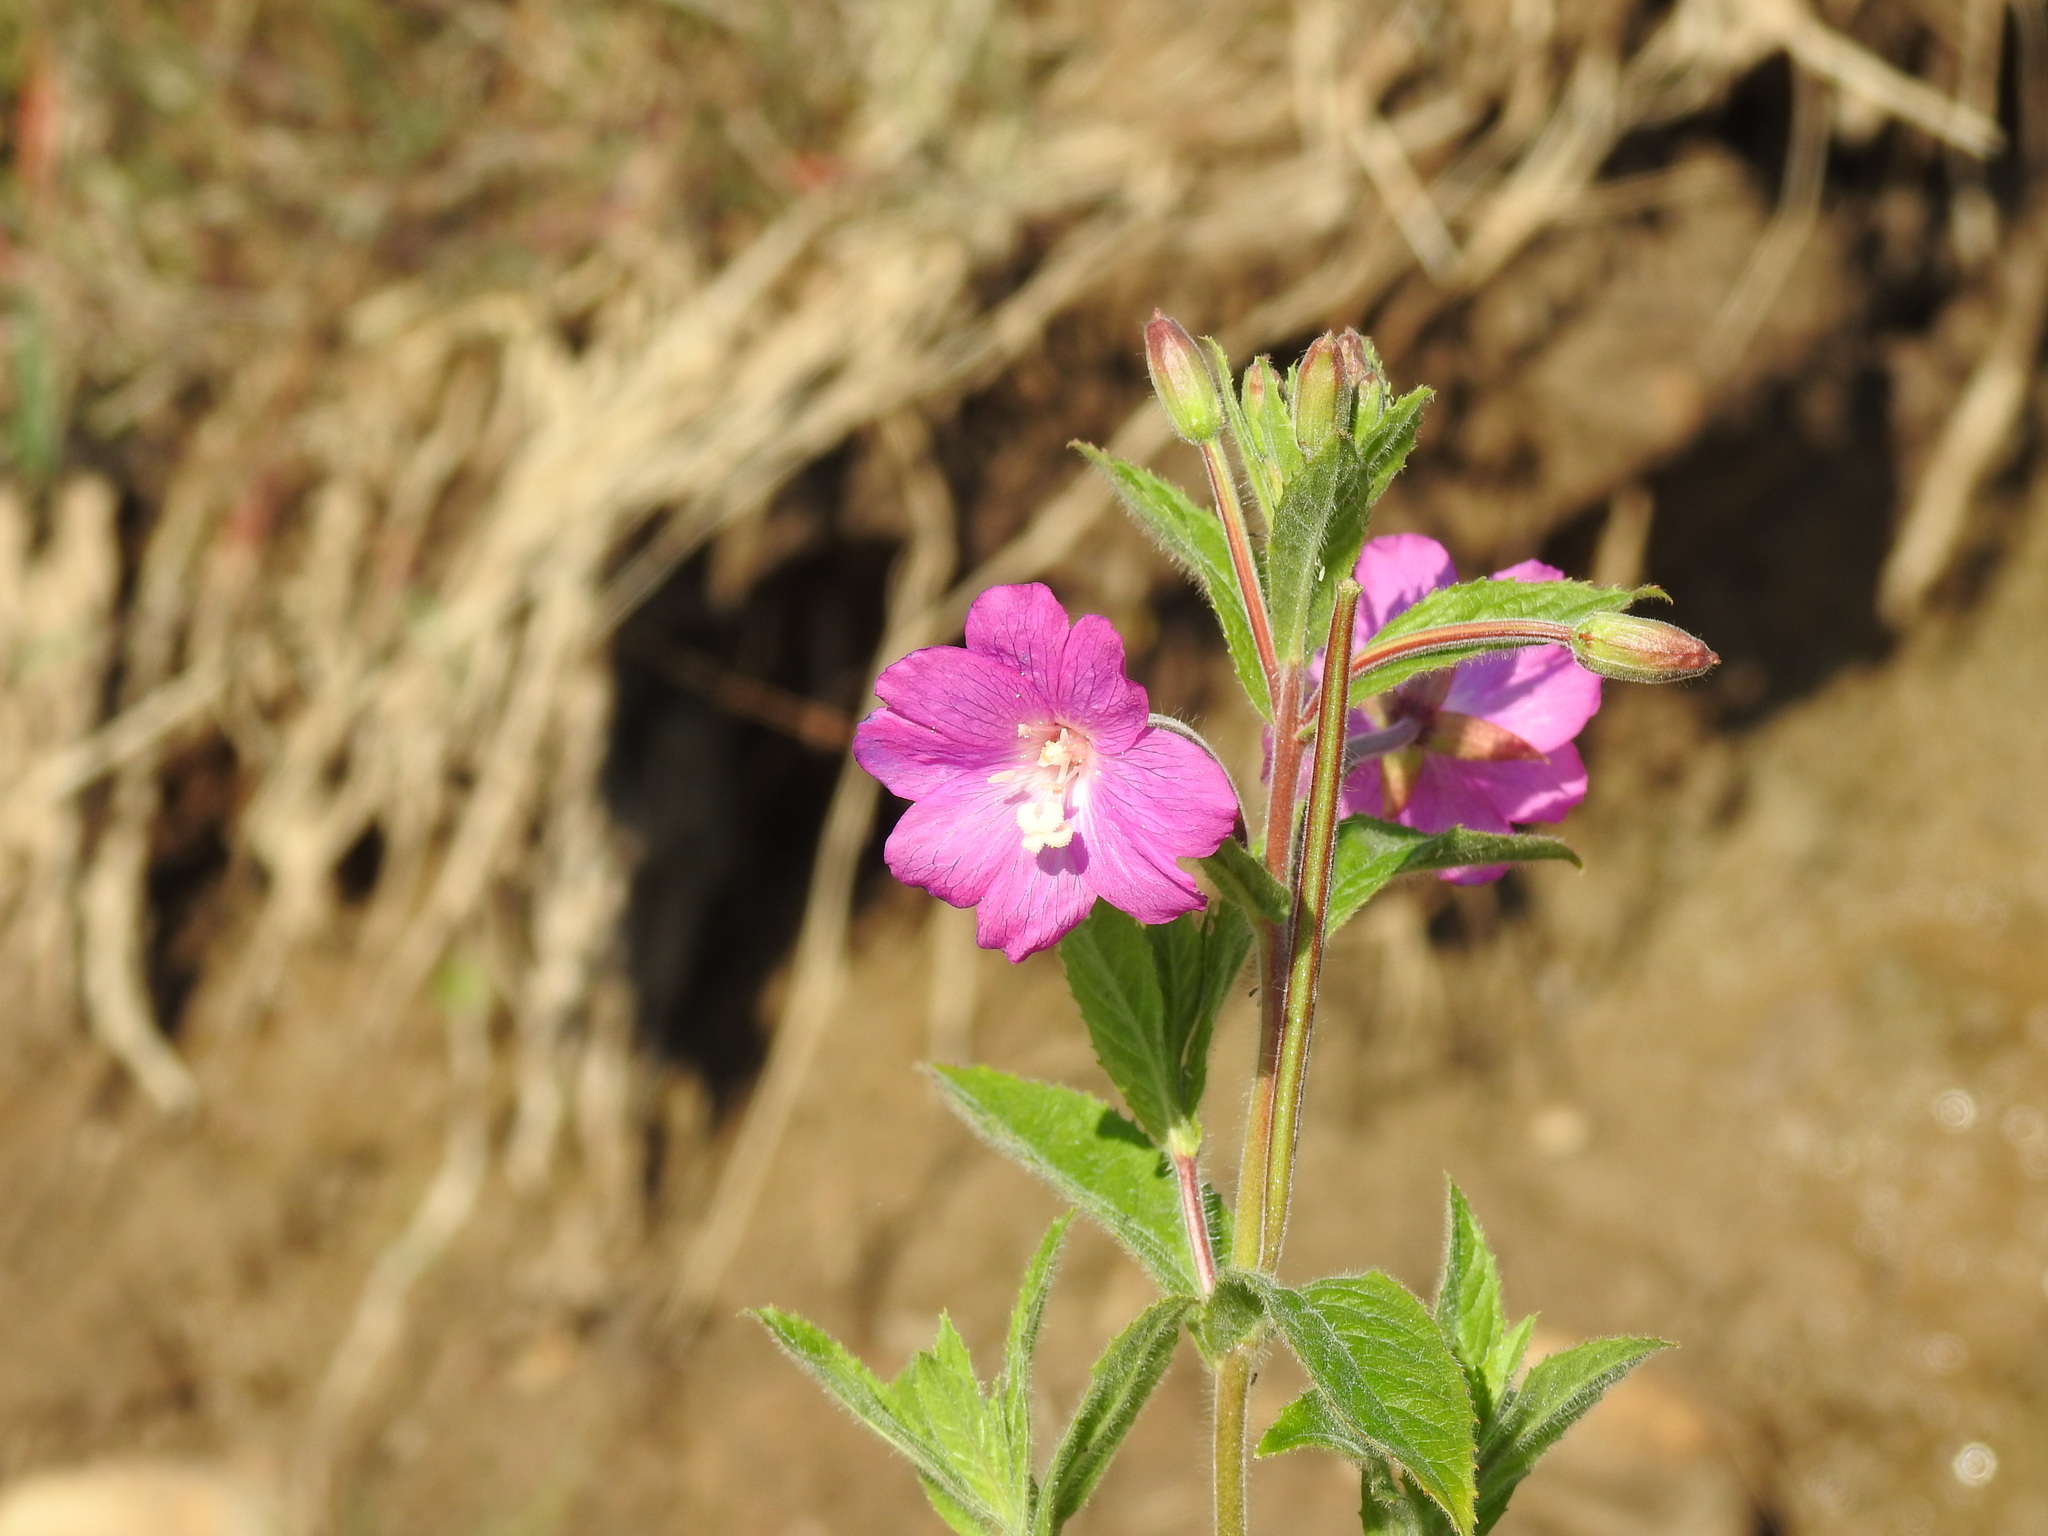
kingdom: Plantae
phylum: Tracheophyta
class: Magnoliopsida
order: Myrtales
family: Onagraceae
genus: Epilobium
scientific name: Epilobium hirsutum
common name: Great willowherb
